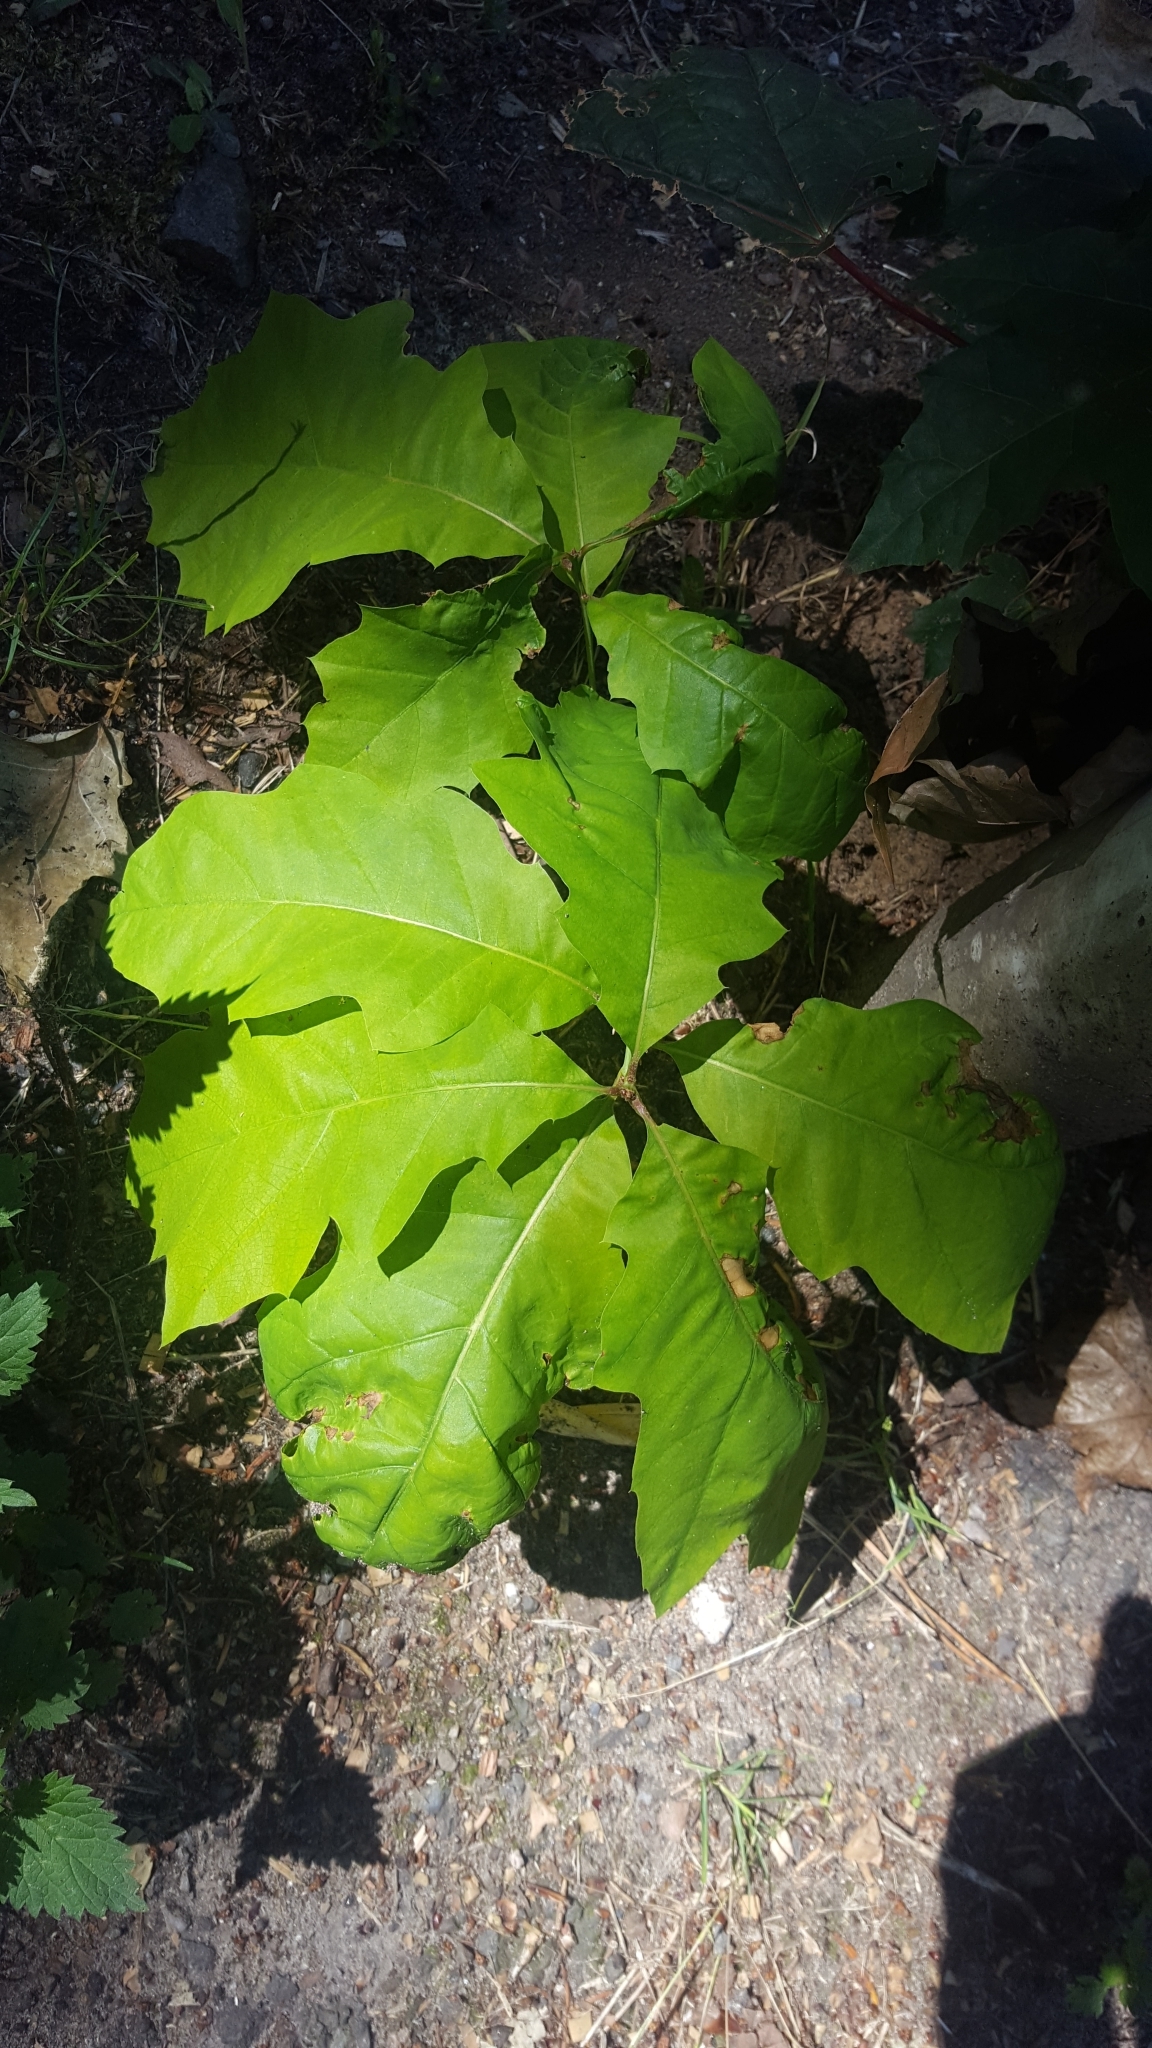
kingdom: Plantae
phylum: Tracheophyta
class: Magnoliopsida
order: Fagales
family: Fagaceae
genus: Quercus
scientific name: Quercus rubra
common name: Red oak
